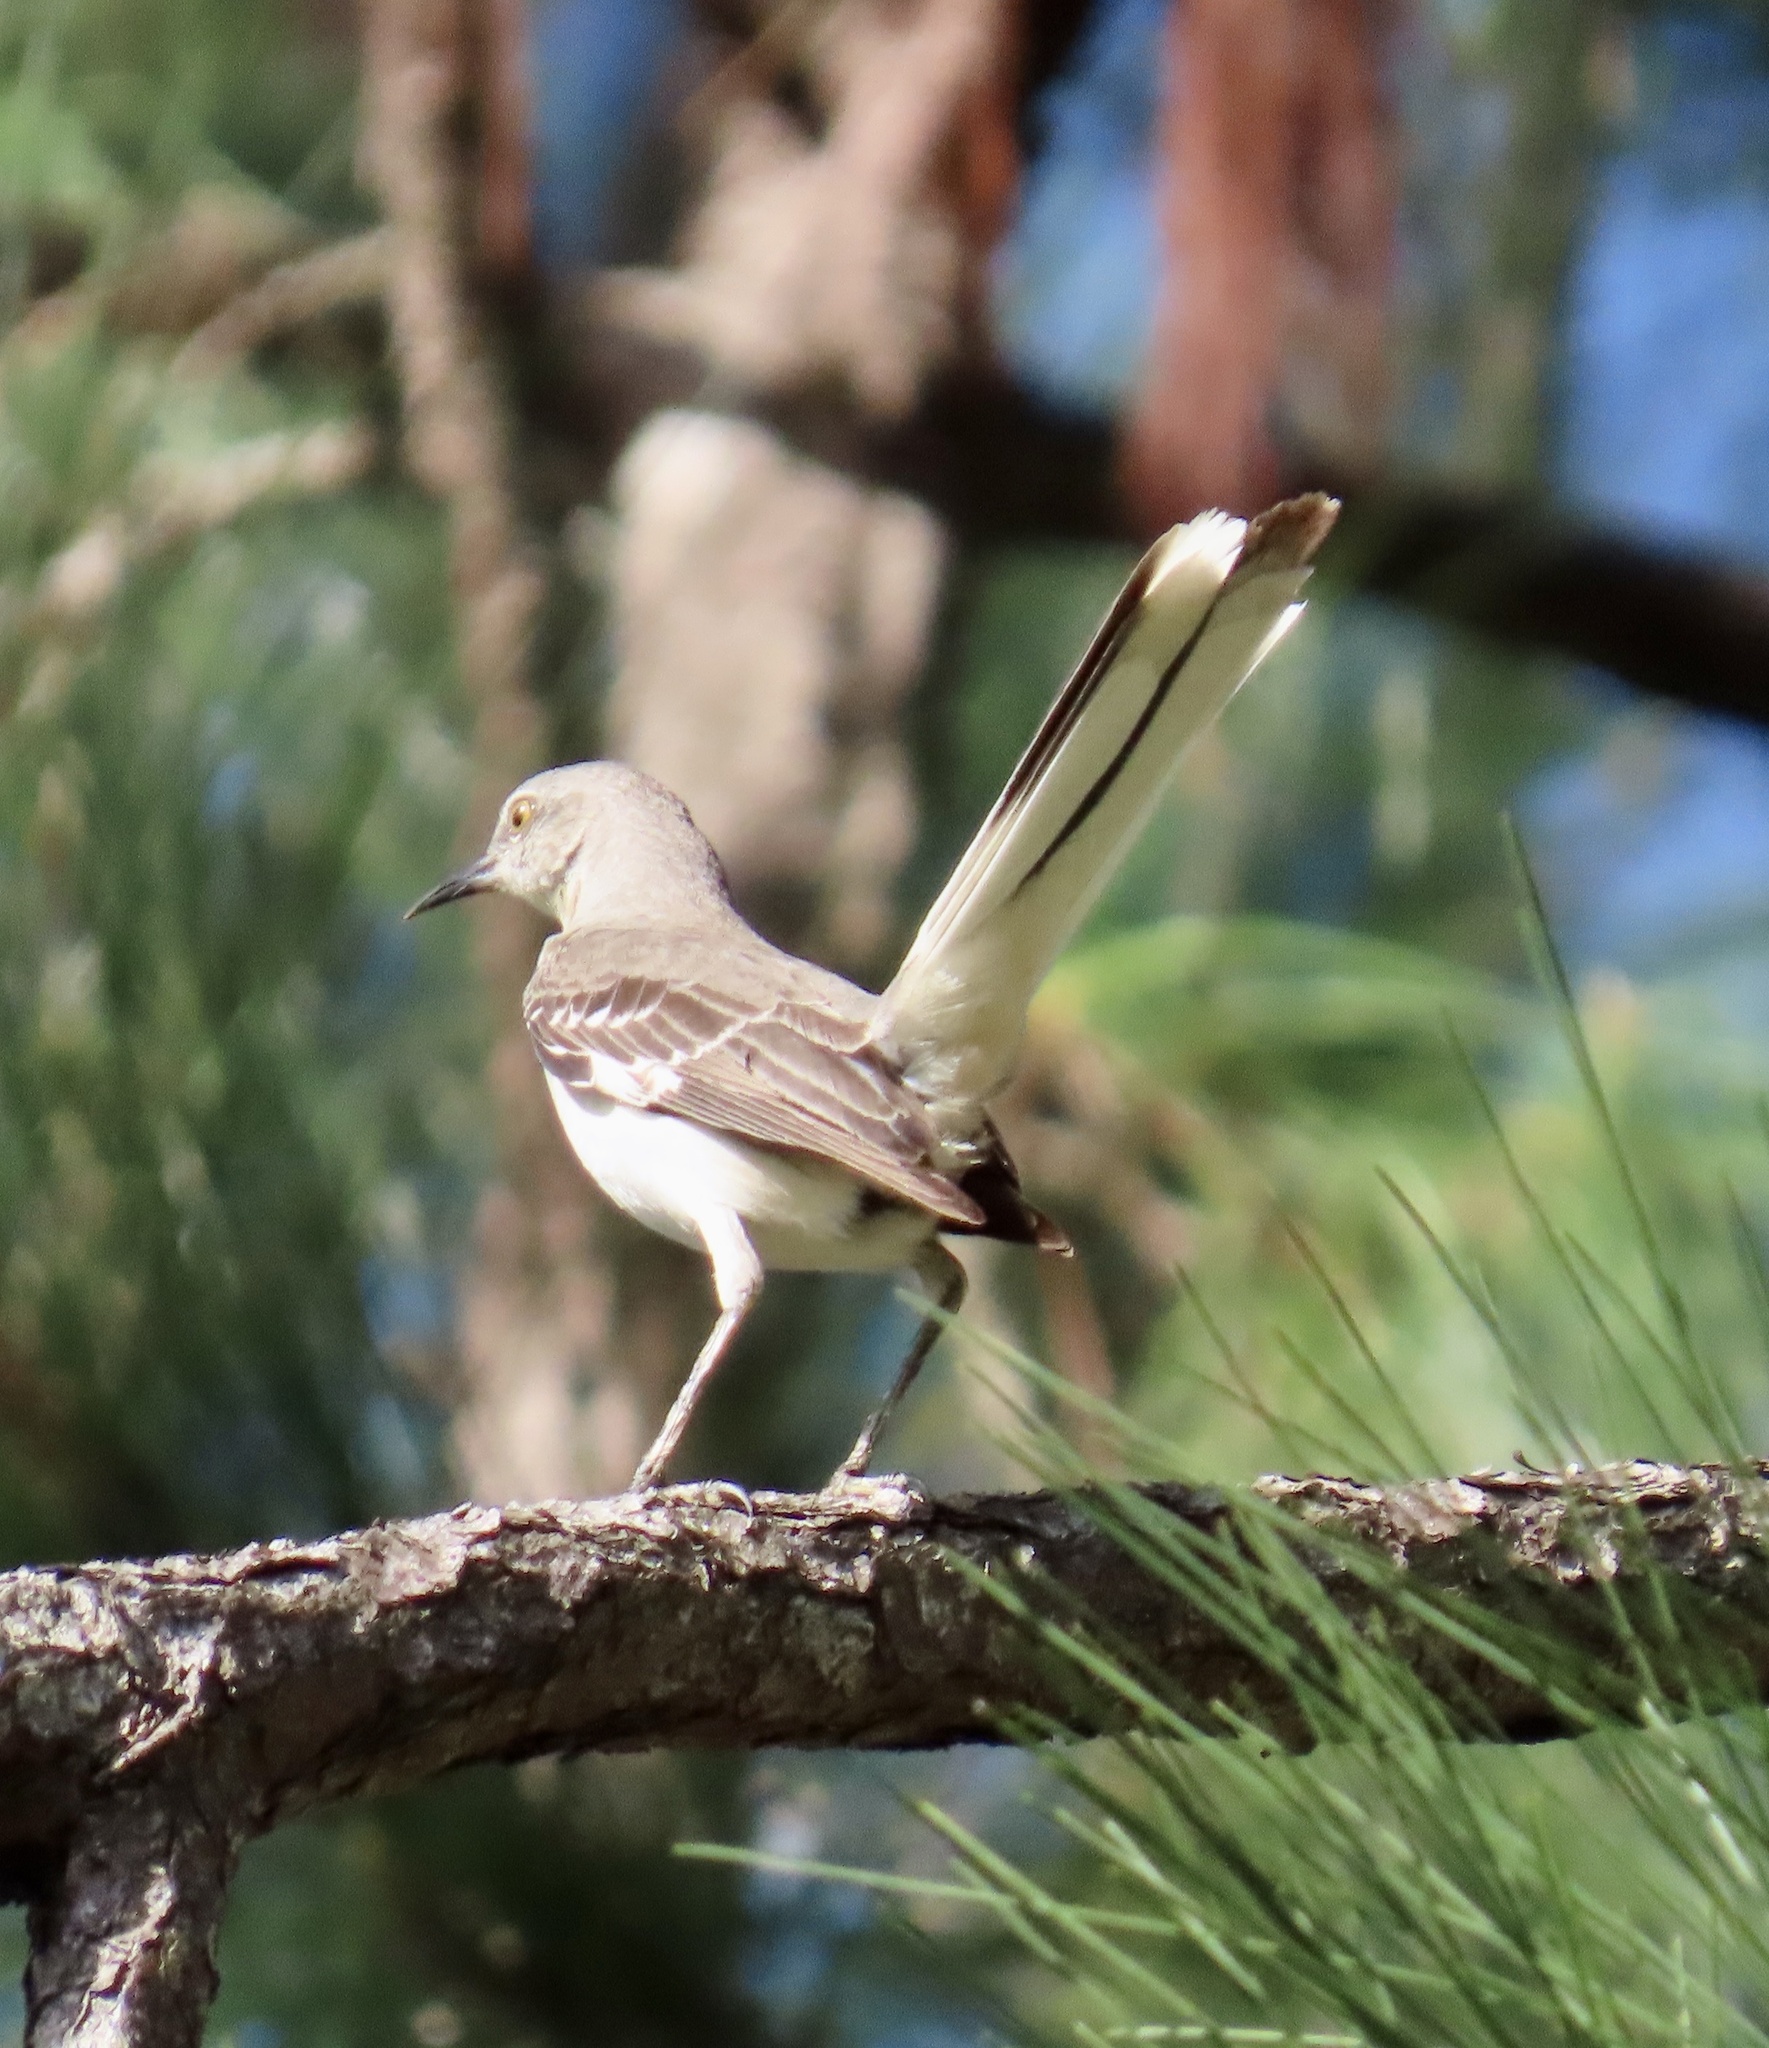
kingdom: Animalia
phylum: Chordata
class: Aves
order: Passeriformes
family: Mimidae
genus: Mimus
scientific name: Mimus polyglottos
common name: Northern mockingbird
